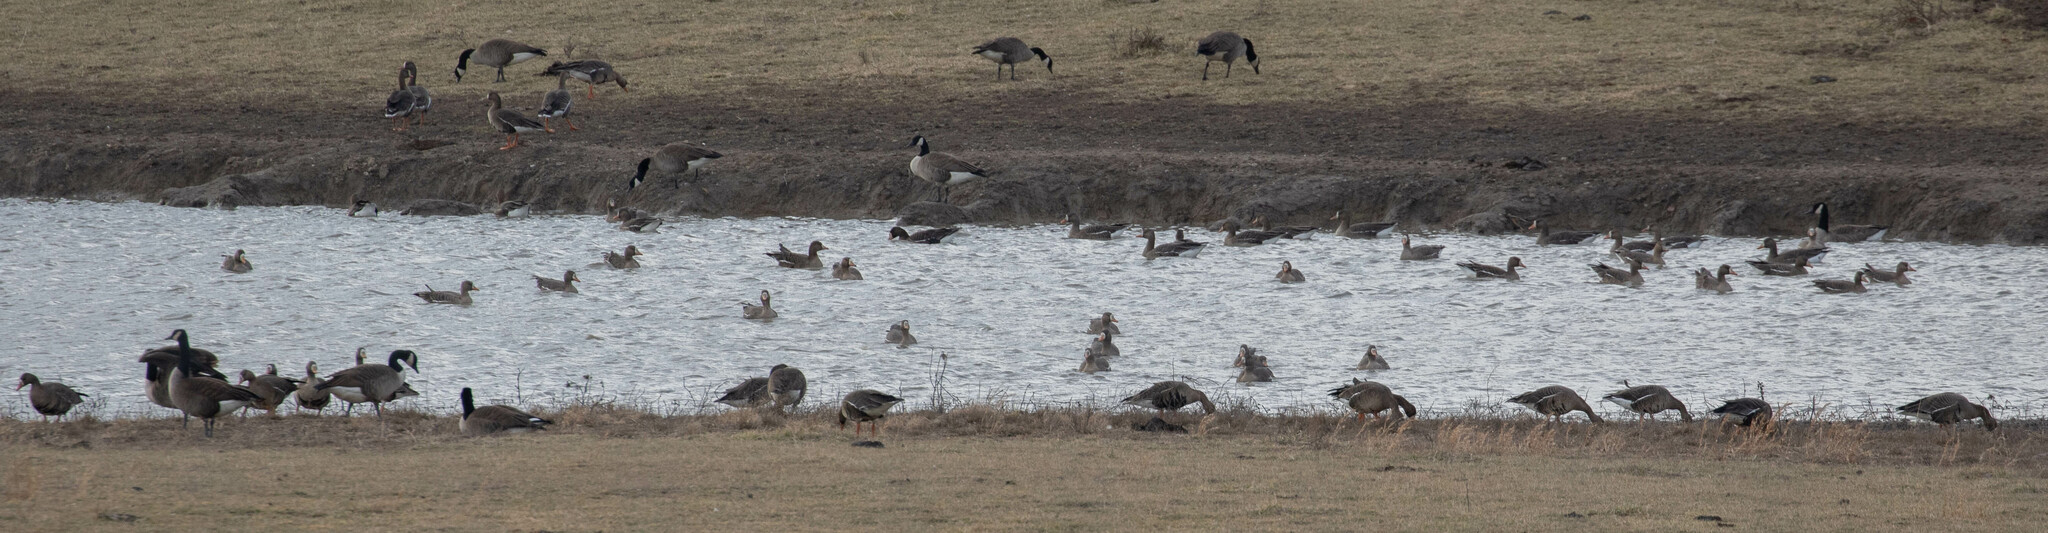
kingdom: Animalia
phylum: Chordata
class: Aves
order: Anseriformes
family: Anatidae
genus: Anser
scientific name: Anser albifrons
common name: Greater white-fronted goose
